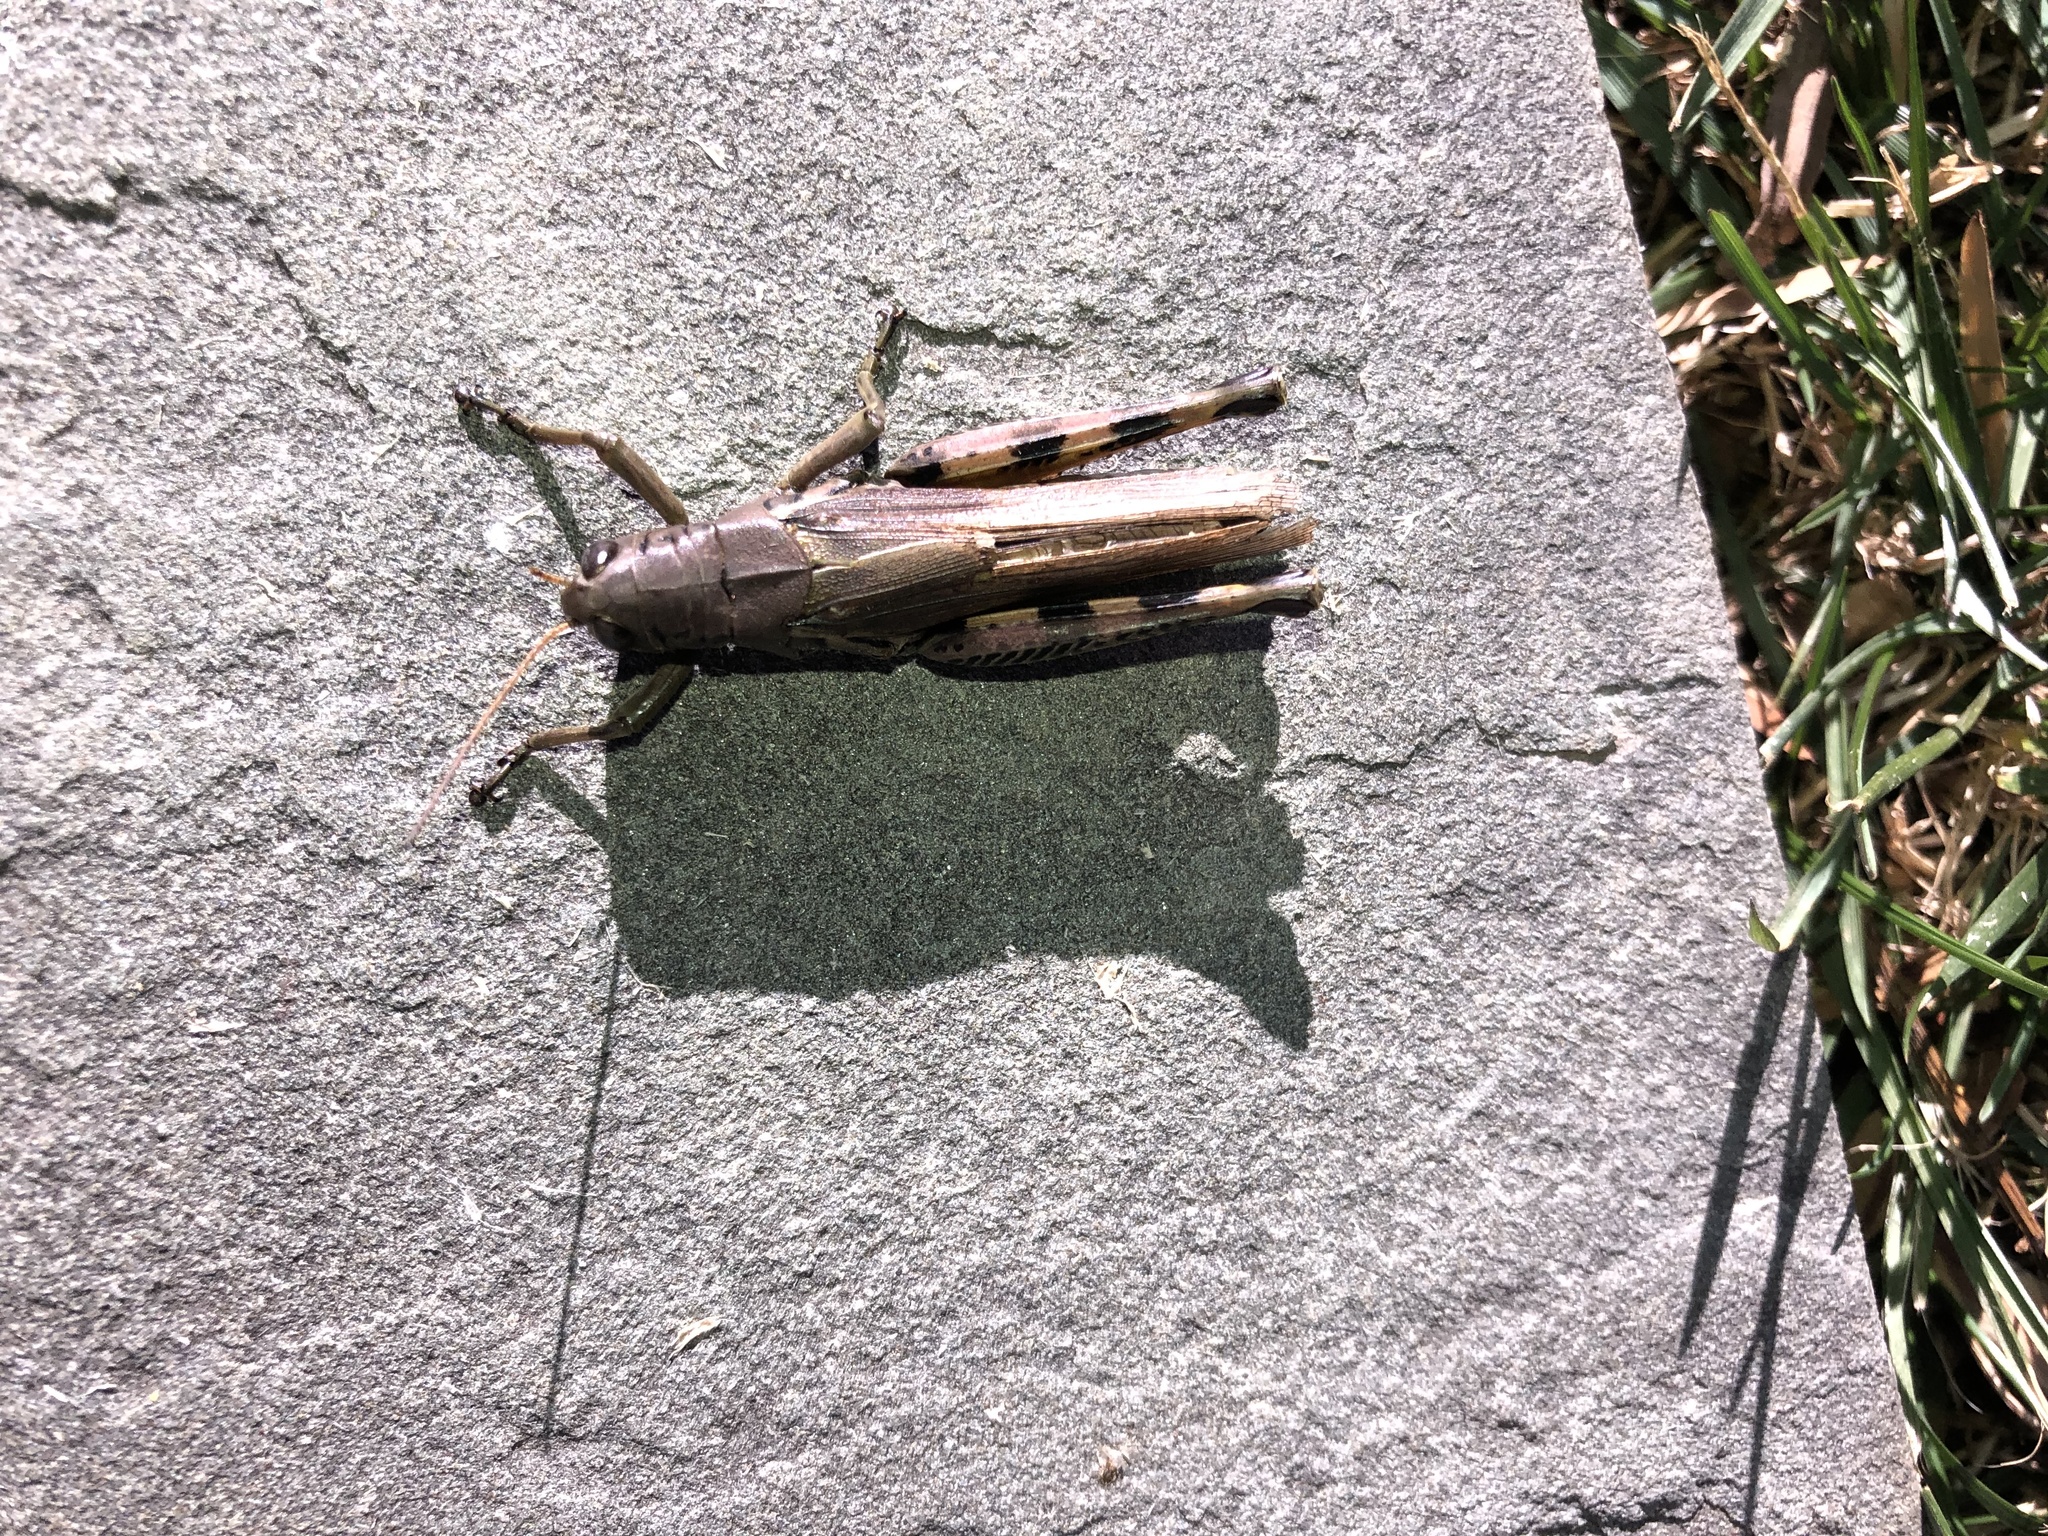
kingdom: Animalia
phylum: Arthropoda
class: Insecta
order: Orthoptera
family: Acrididae
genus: Melanoplus
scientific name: Melanoplus differentialis
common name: Differential grasshopper
